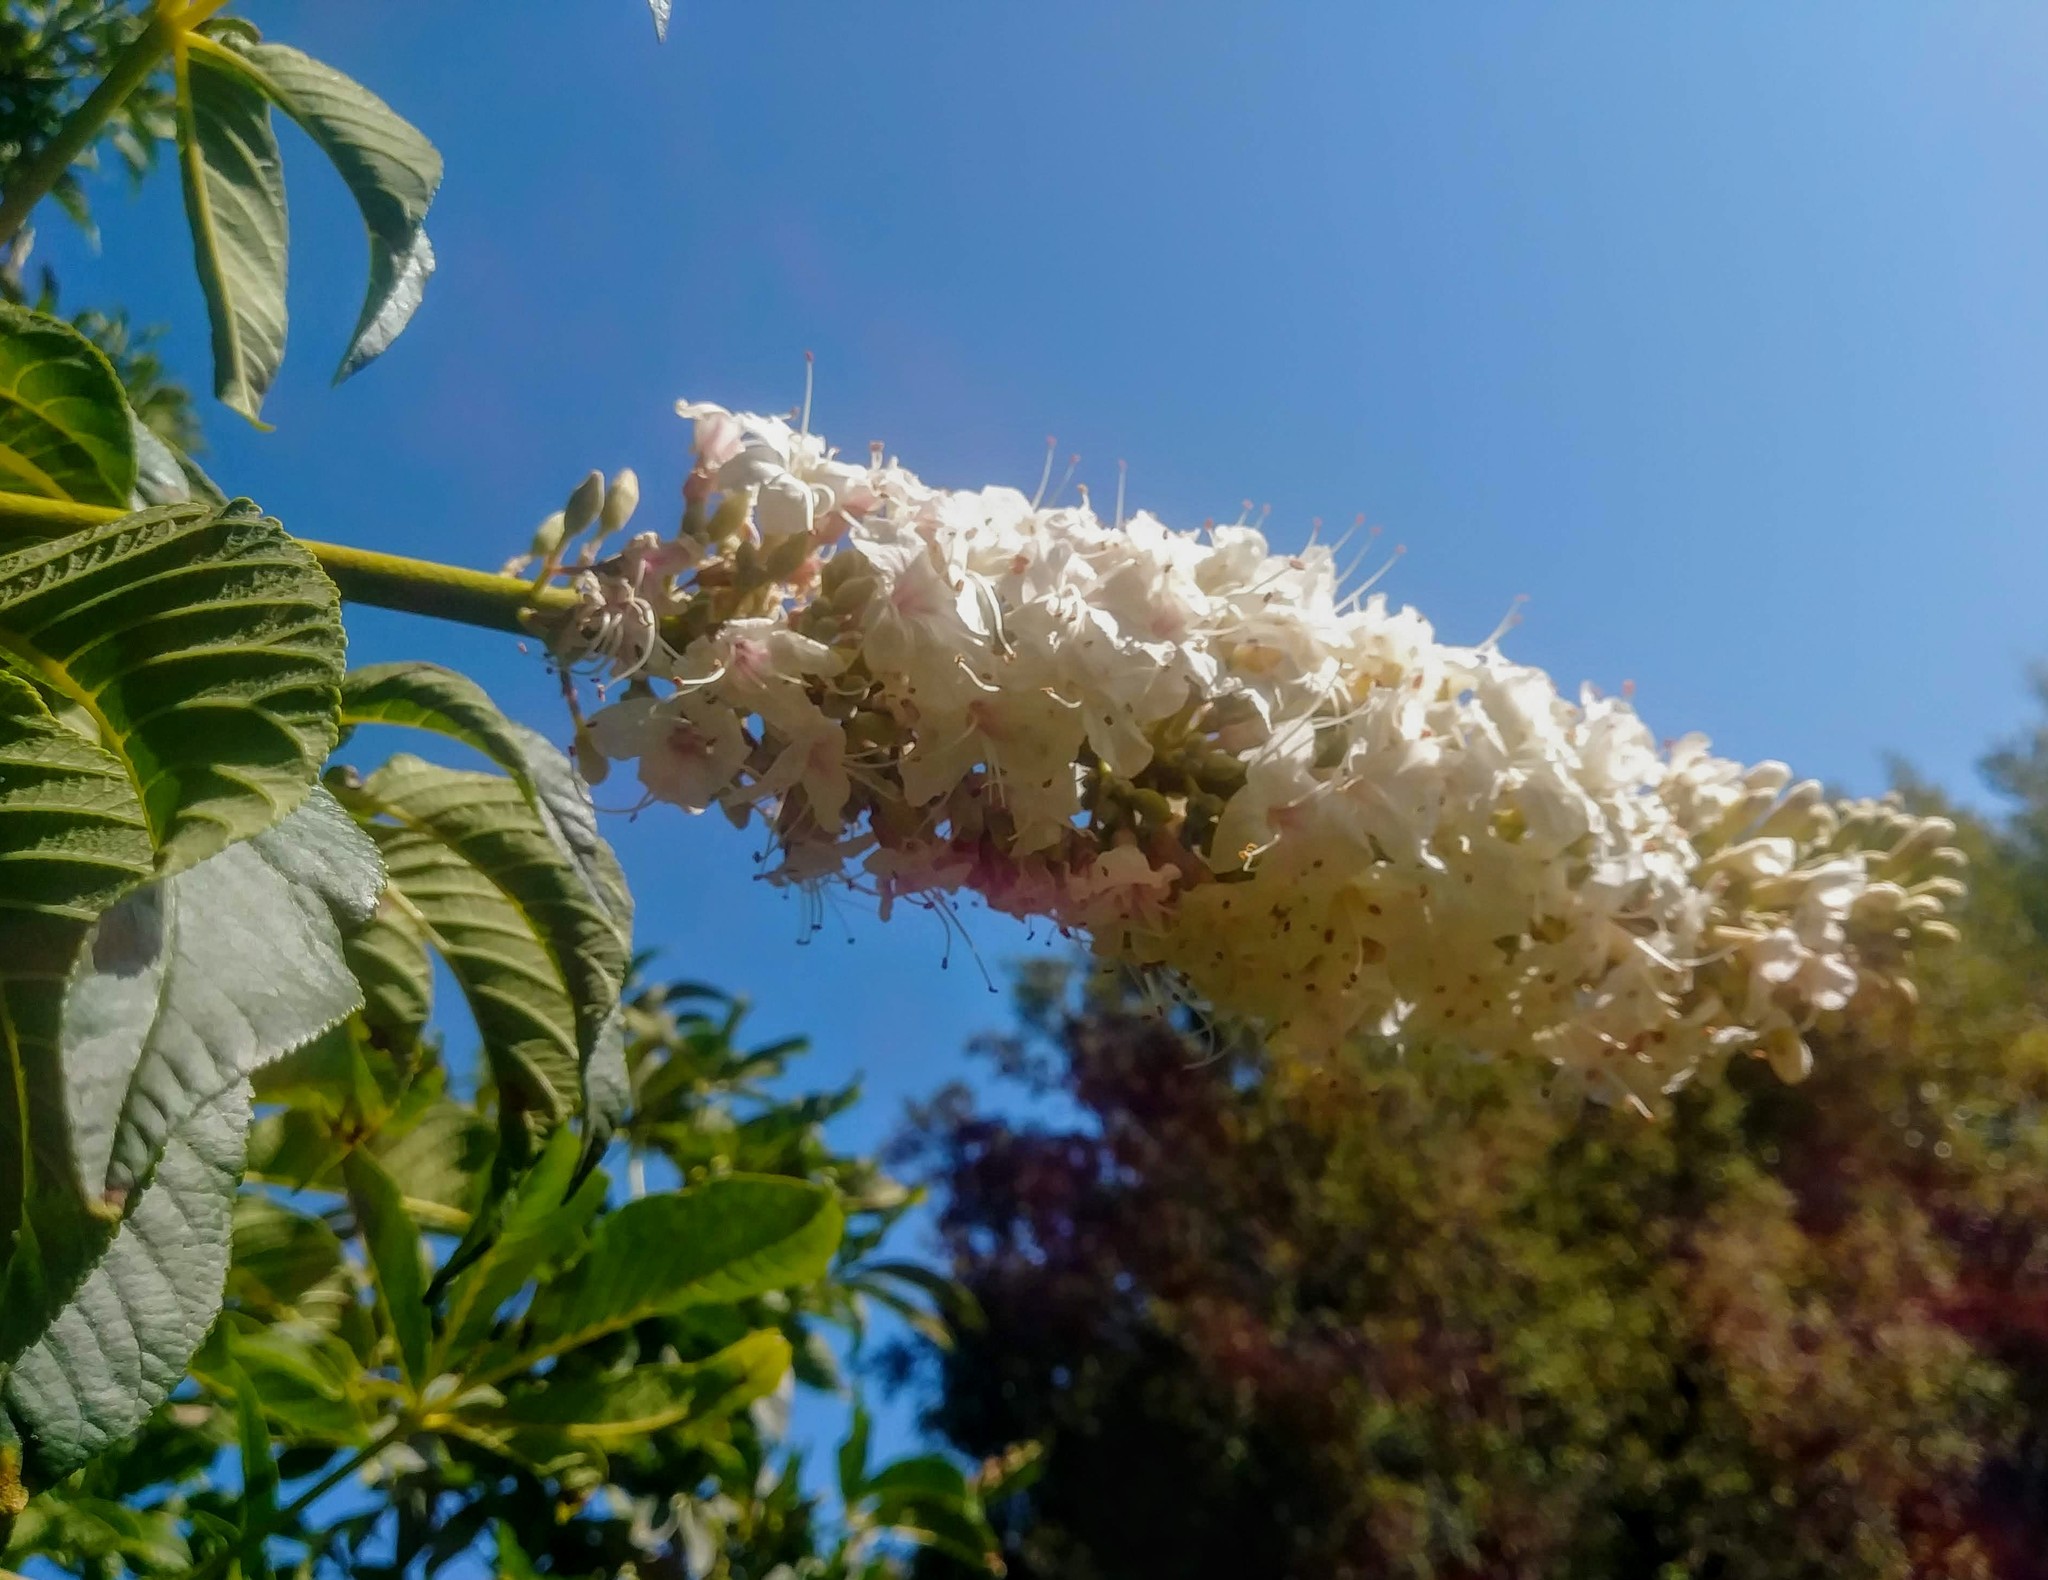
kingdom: Plantae
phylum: Tracheophyta
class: Magnoliopsida
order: Sapindales
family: Sapindaceae
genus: Aesculus
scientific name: Aesculus californica
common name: California buckeye
